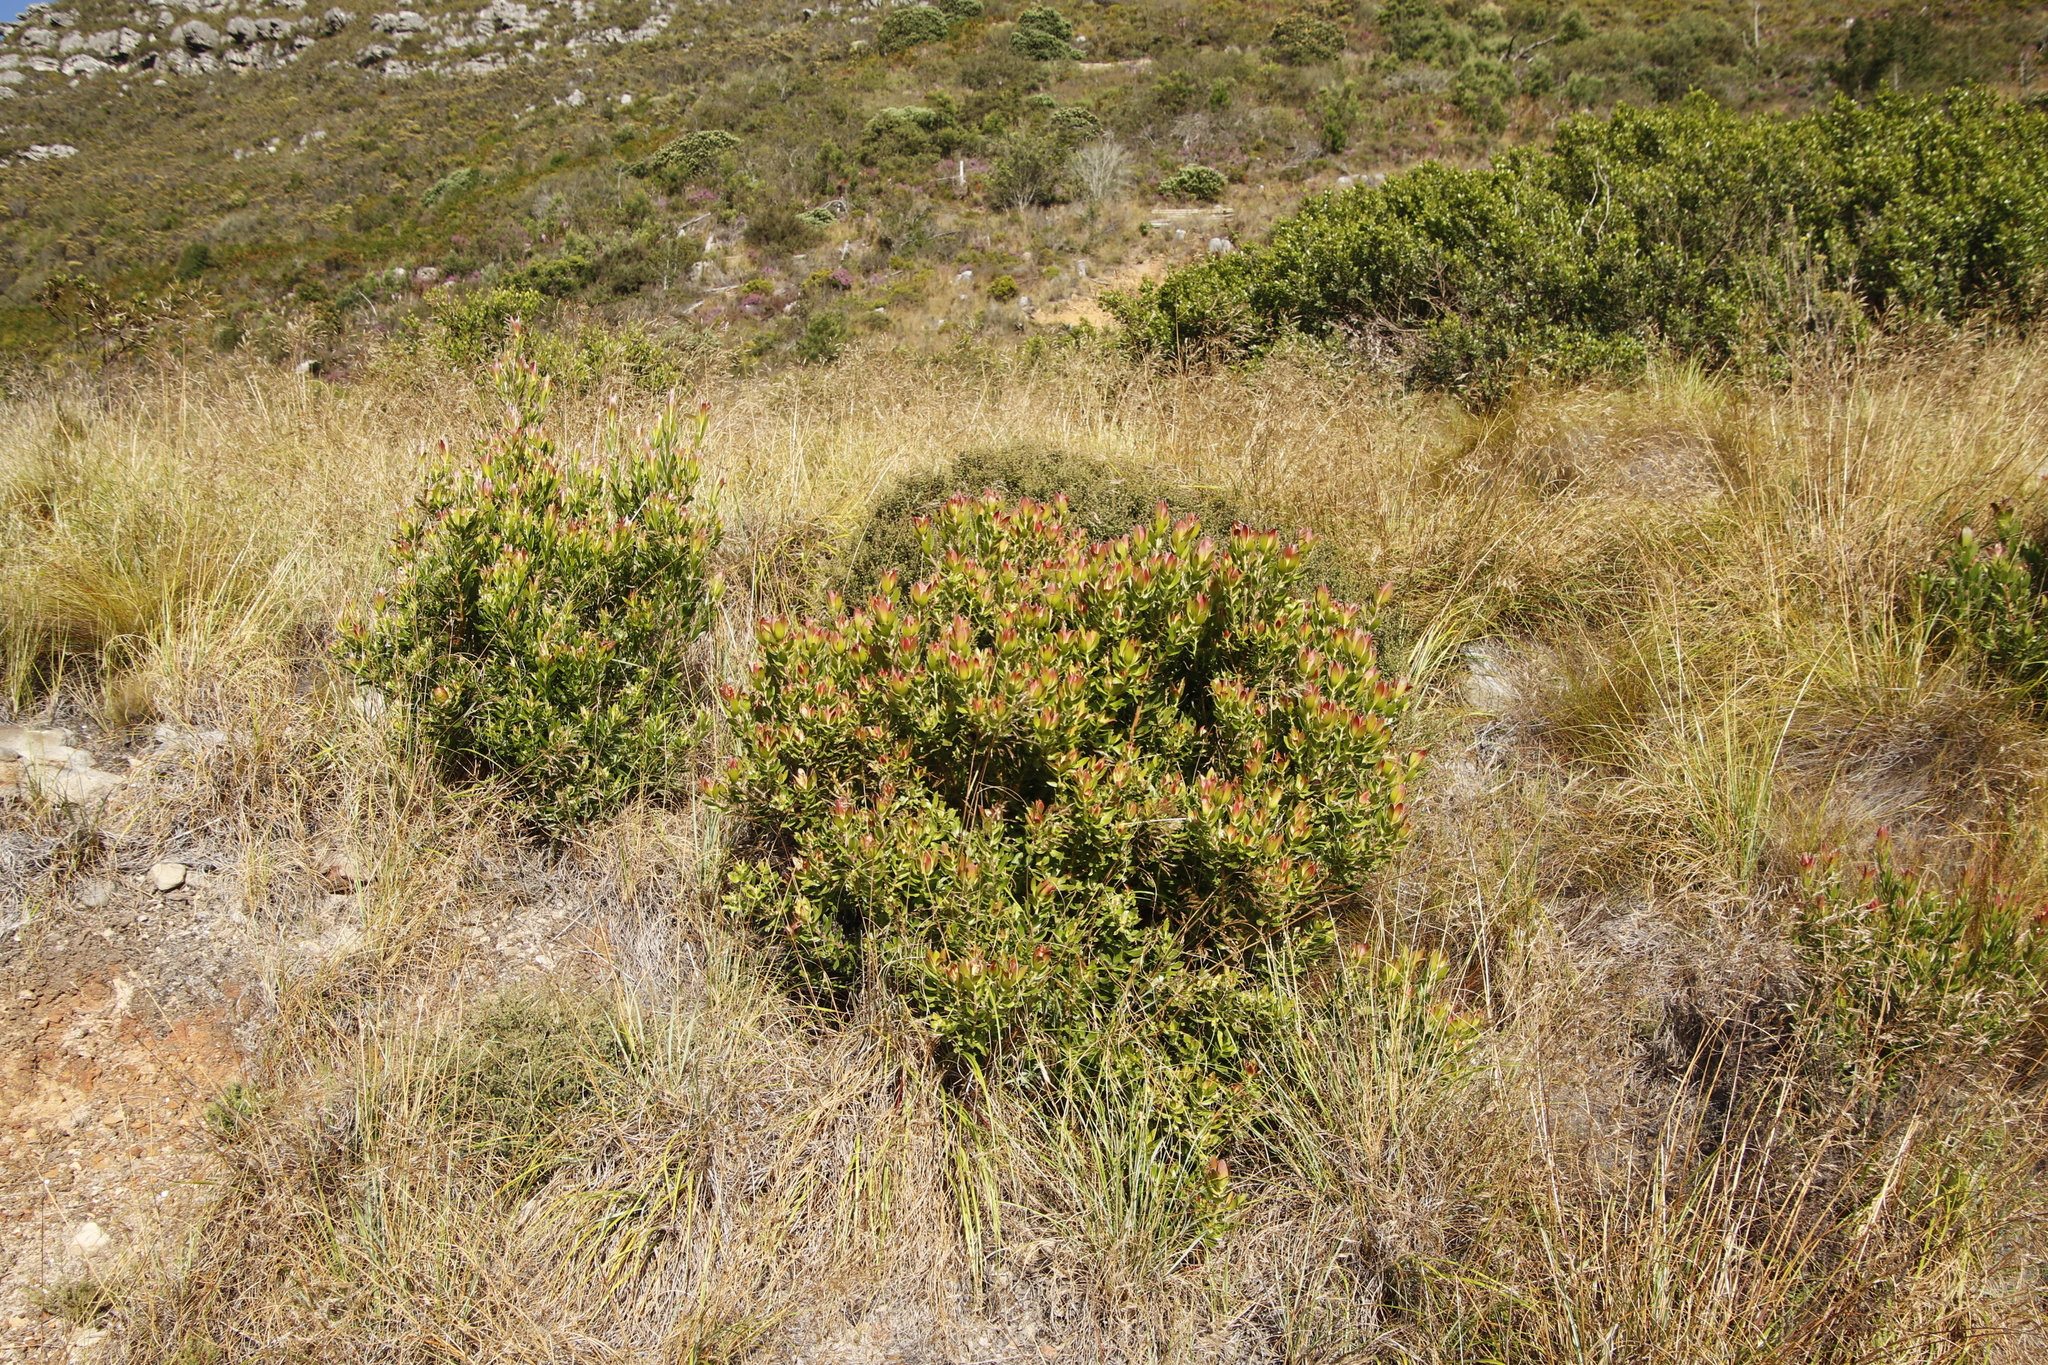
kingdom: Plantae
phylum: Tracheophyta
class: Magnoliopsida
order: Proteales
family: Proteaceae
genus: Leucadendron
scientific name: Leucadendron strobilinum
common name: Mountain rose
